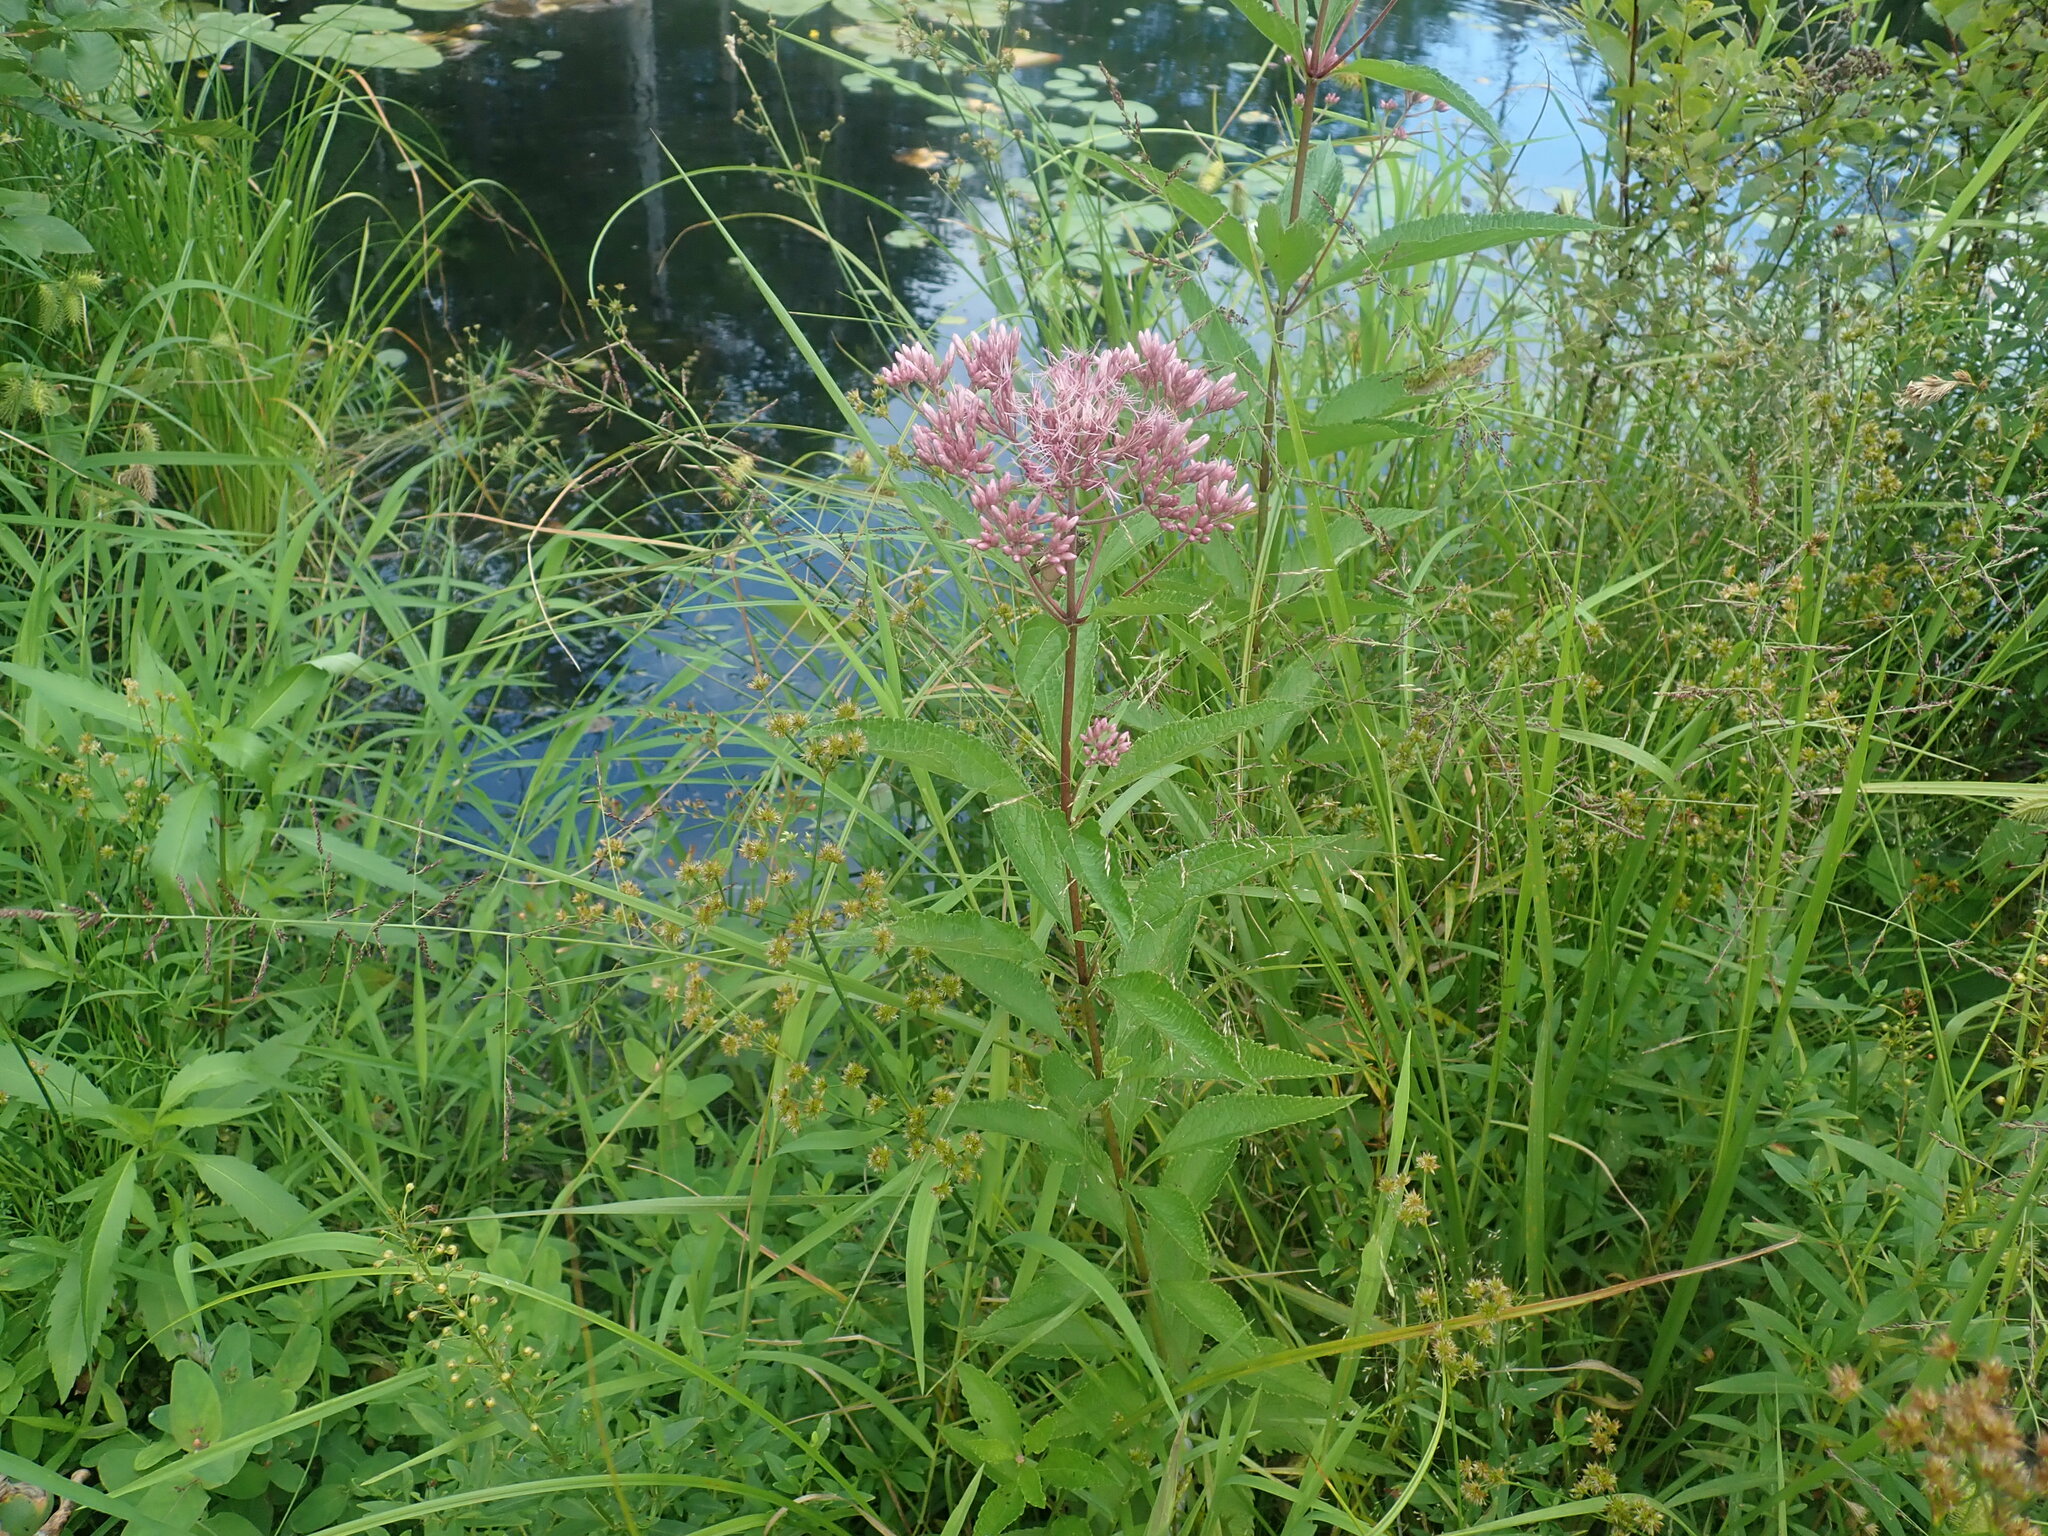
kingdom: Plantae
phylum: Tracheophyta
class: Magnoliopsida
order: Asterales
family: Asteraceae
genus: Eutrochium
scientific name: Eutrochium
